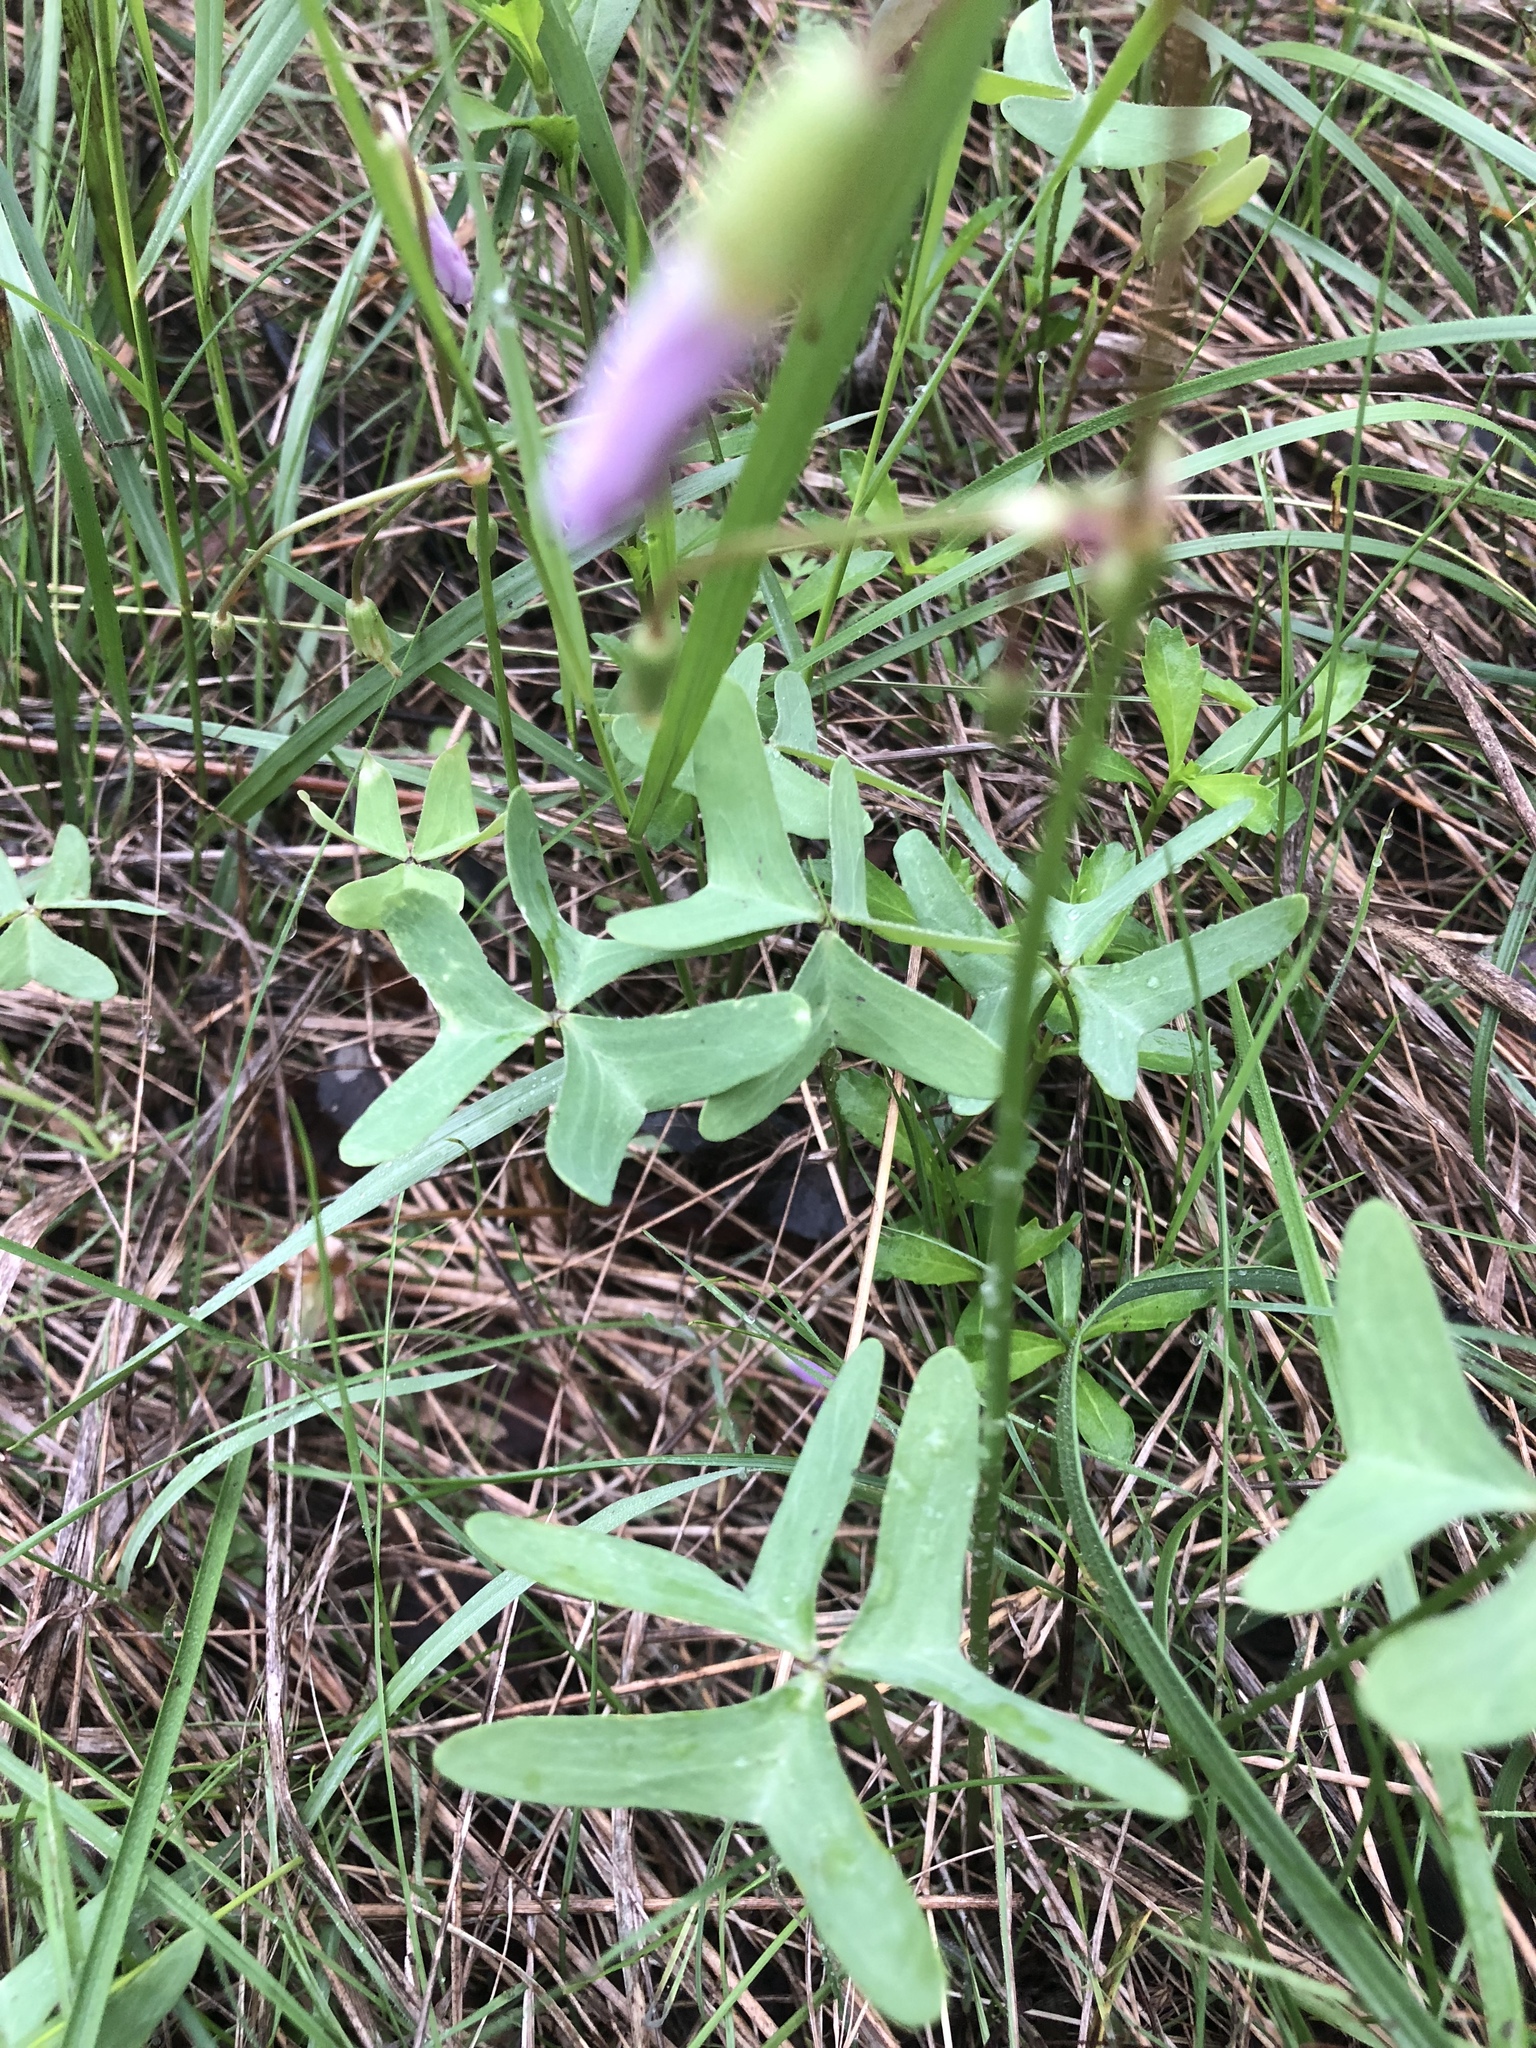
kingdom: Plantae
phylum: Tracheophyta
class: Magnoliopsida
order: Oxalidales
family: Oxalidaceae
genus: Oxalis
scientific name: Oxalis drummondii
